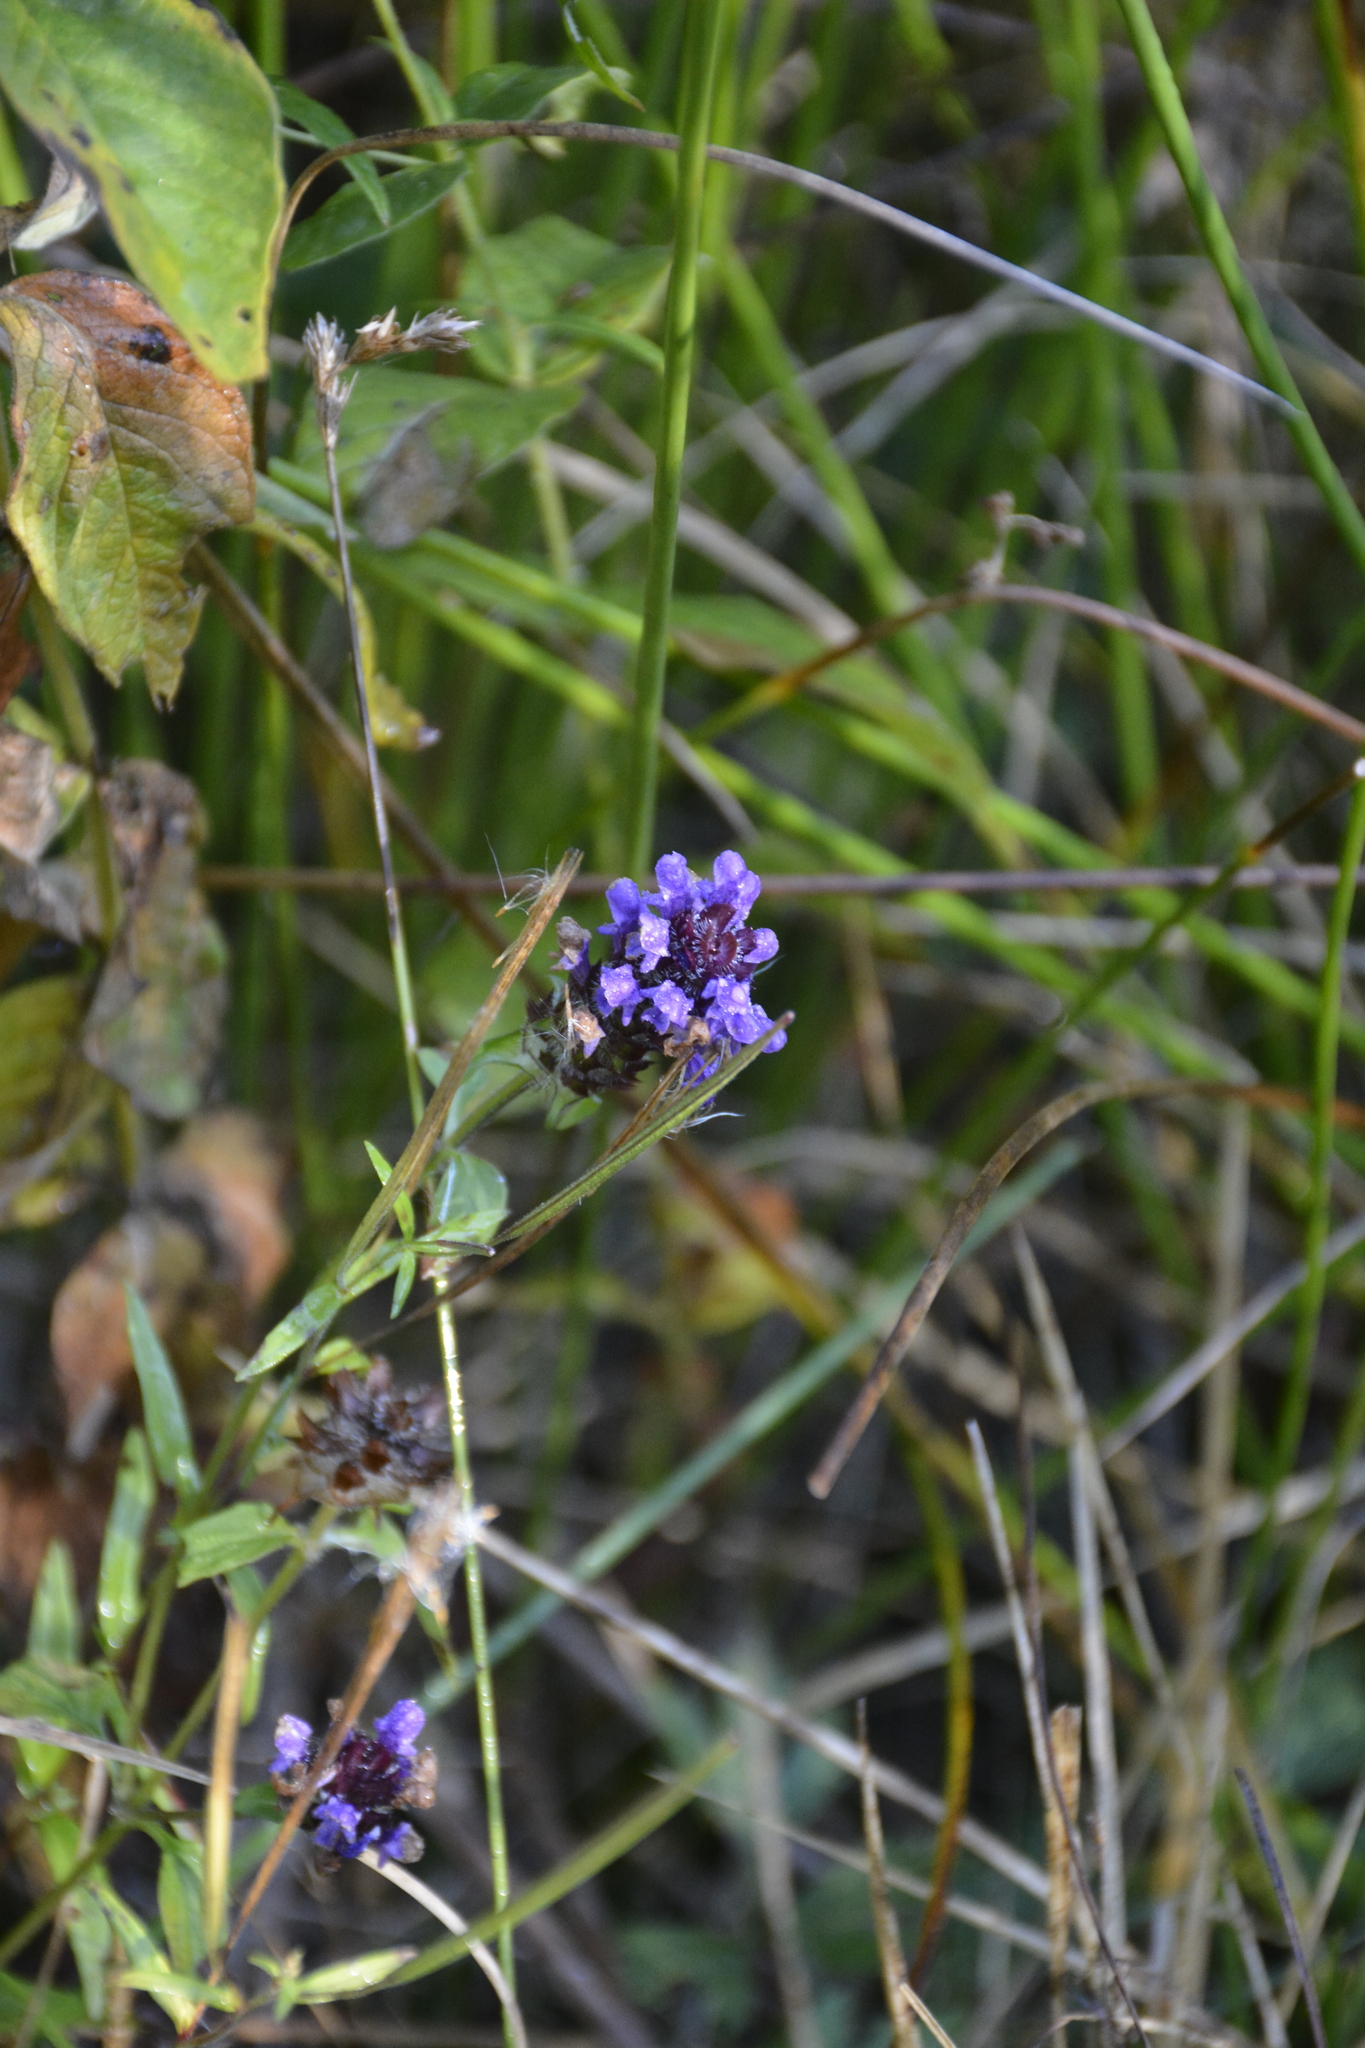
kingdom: Plantae
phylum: Tracheophyta
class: Magnoliopsida
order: Lamiales
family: Lamiaceae
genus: Prunella
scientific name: Prunella vulgaris
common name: Heal-all
